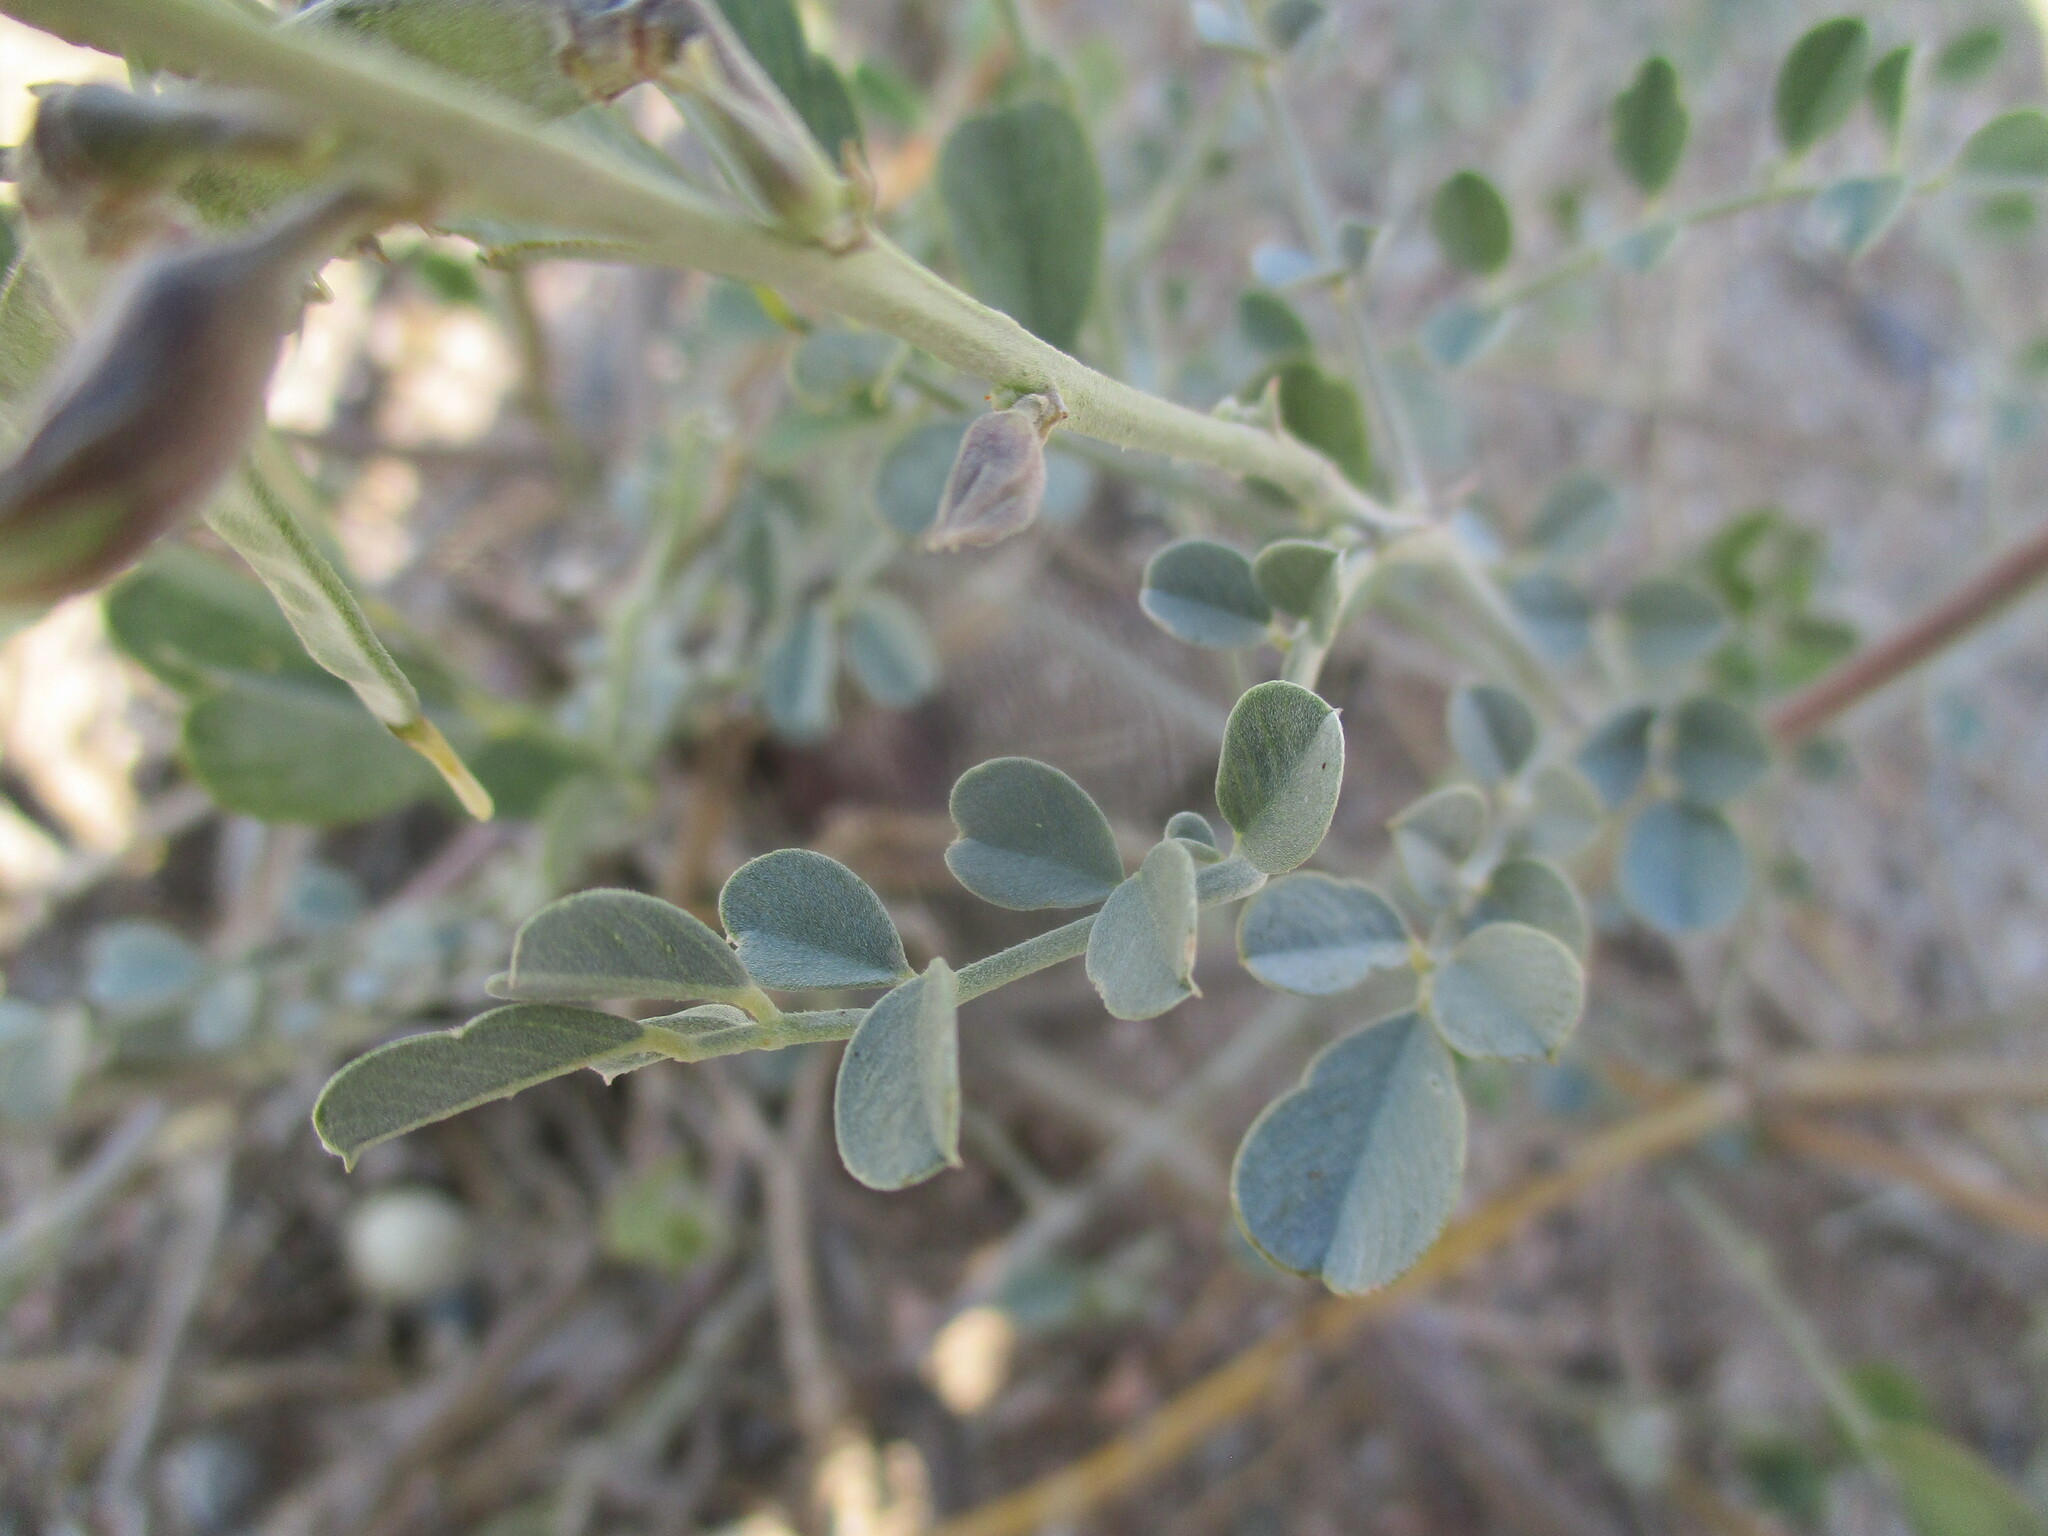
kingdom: Plantae
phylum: Tracheophyta
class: Magnoliopsida
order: Fabales
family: Fabaceae
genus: Tephrosia
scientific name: Tephrosia oxygona
